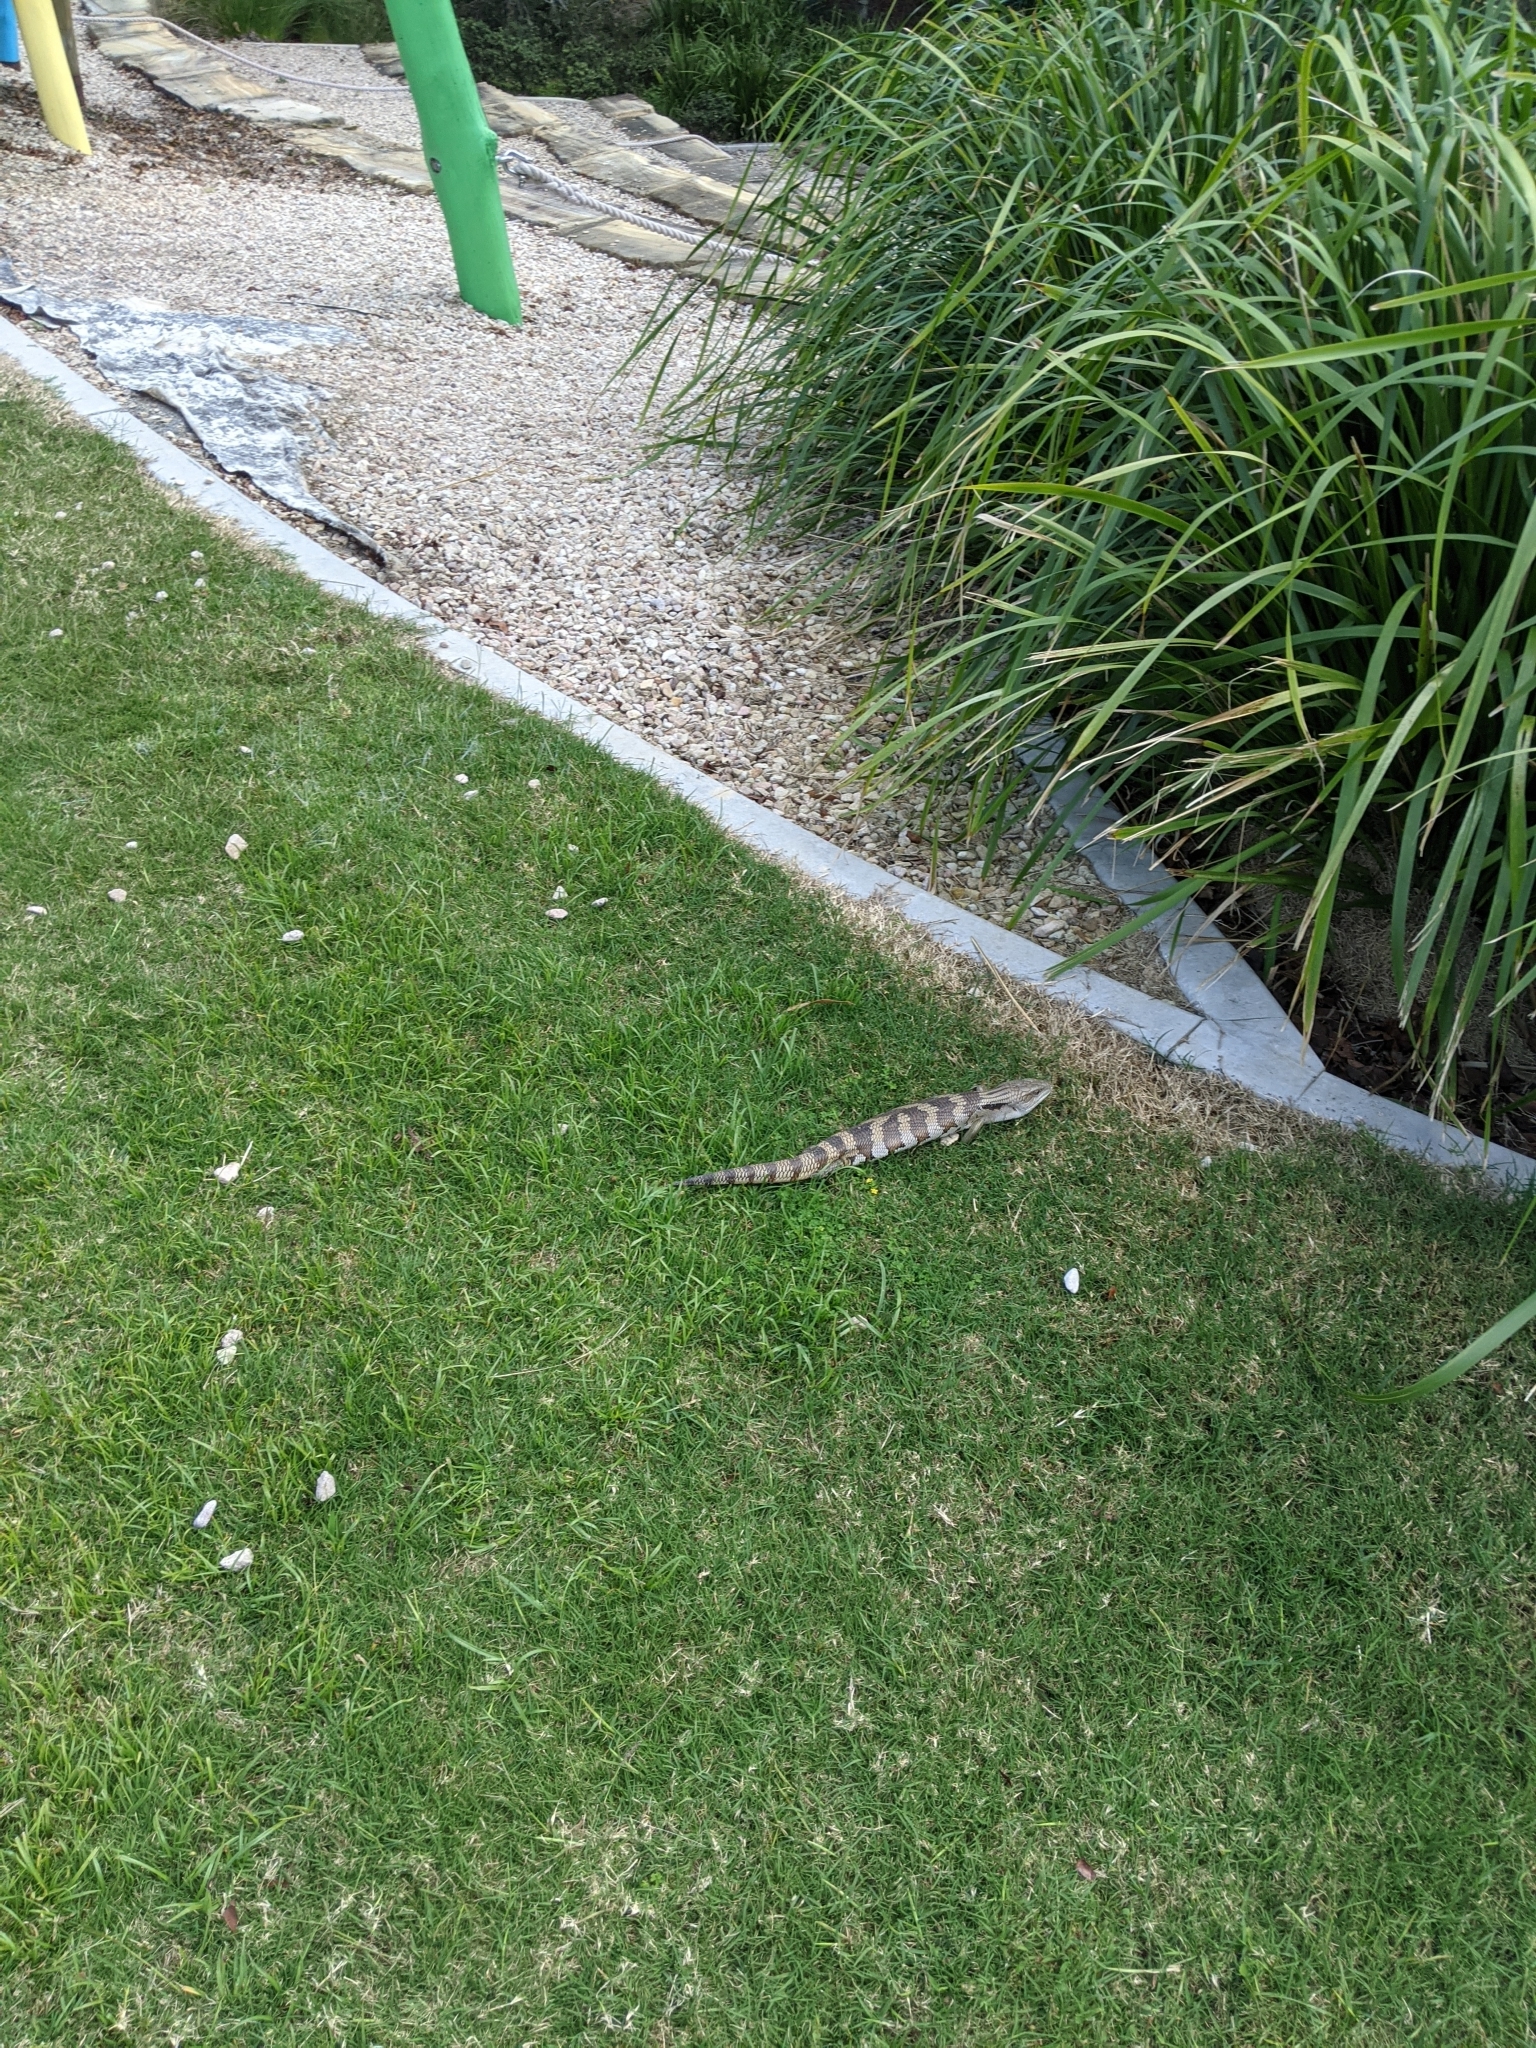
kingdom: Animalia
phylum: Chordata
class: Squamata
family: Scincidae
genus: Tiliqua
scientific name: Tiliqua scincoides
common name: Common bluetongue
